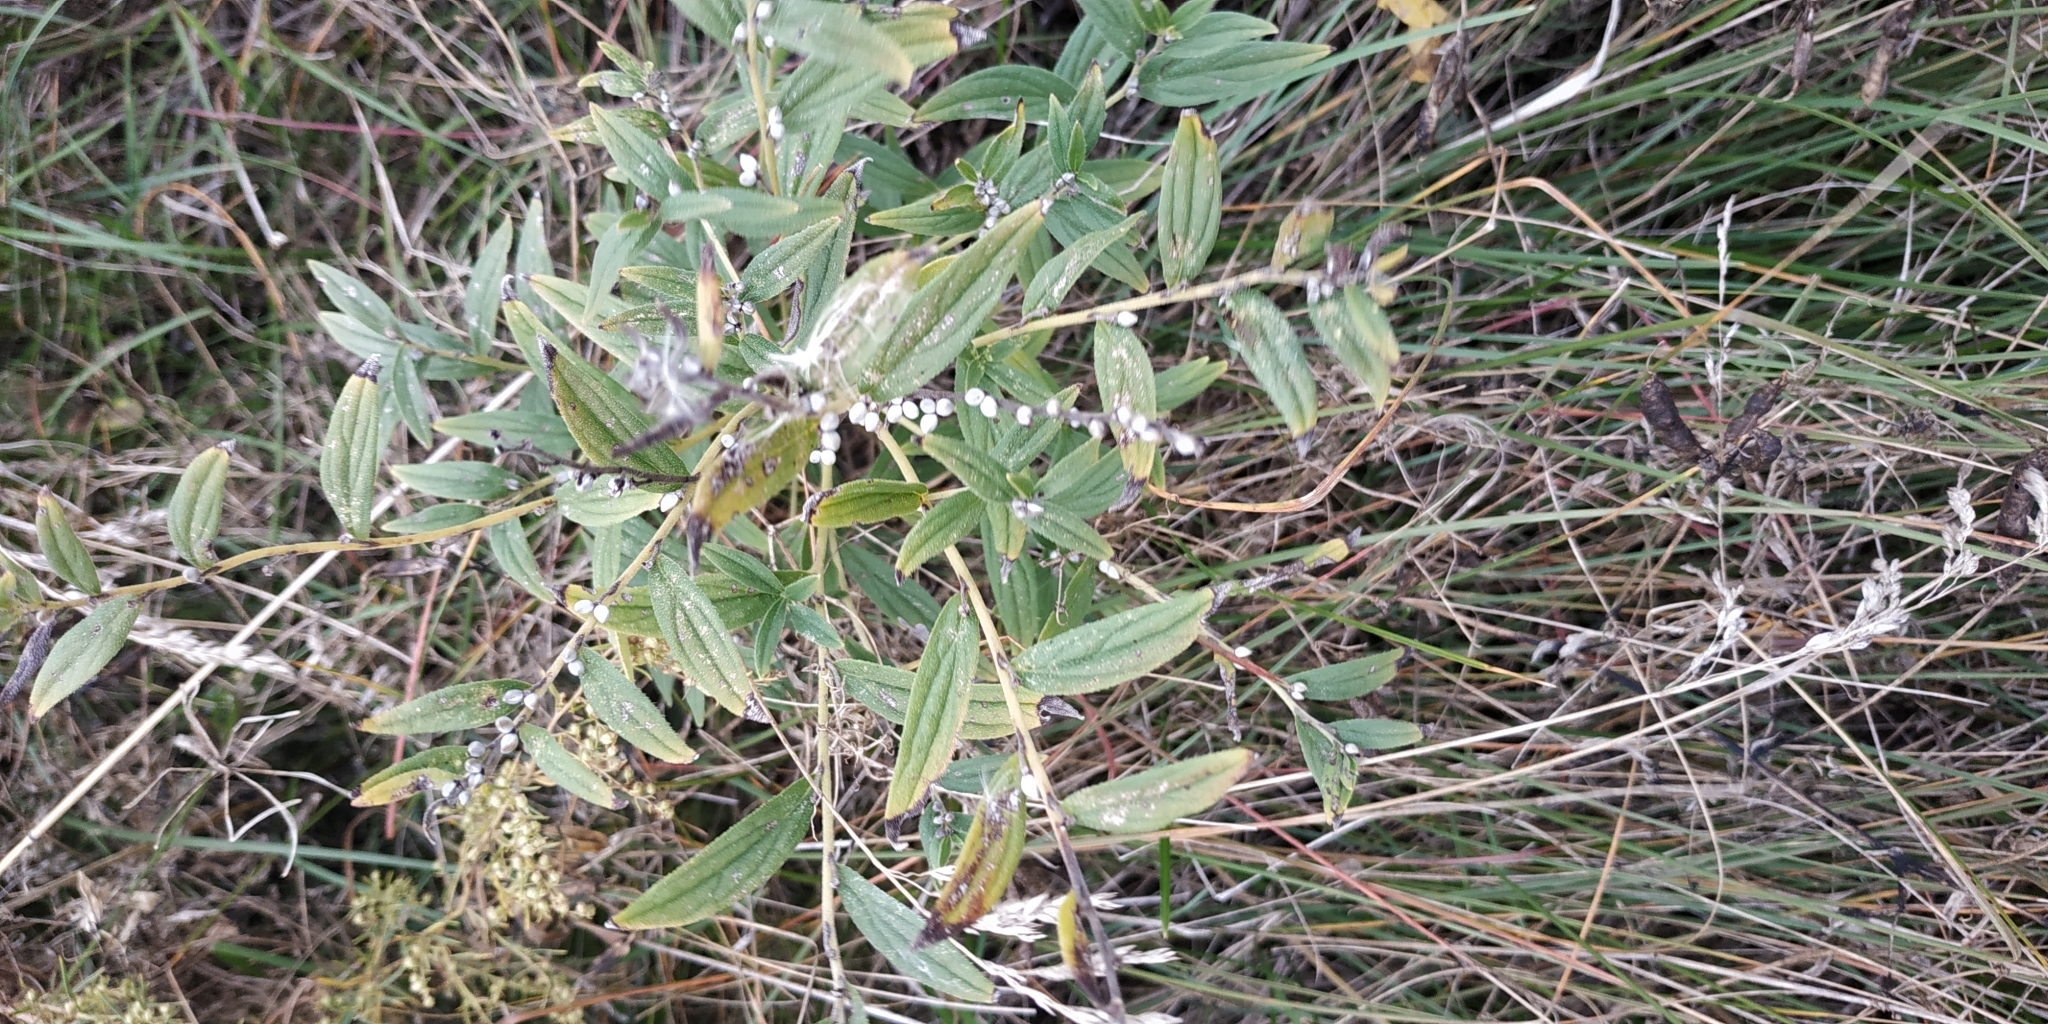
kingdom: Plantae
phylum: Tracheophyta
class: Magnoliopsida
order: Boraginales
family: Boraginaceae
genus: Lithospermum
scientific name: Lithospermum officinale
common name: Common gromwell
